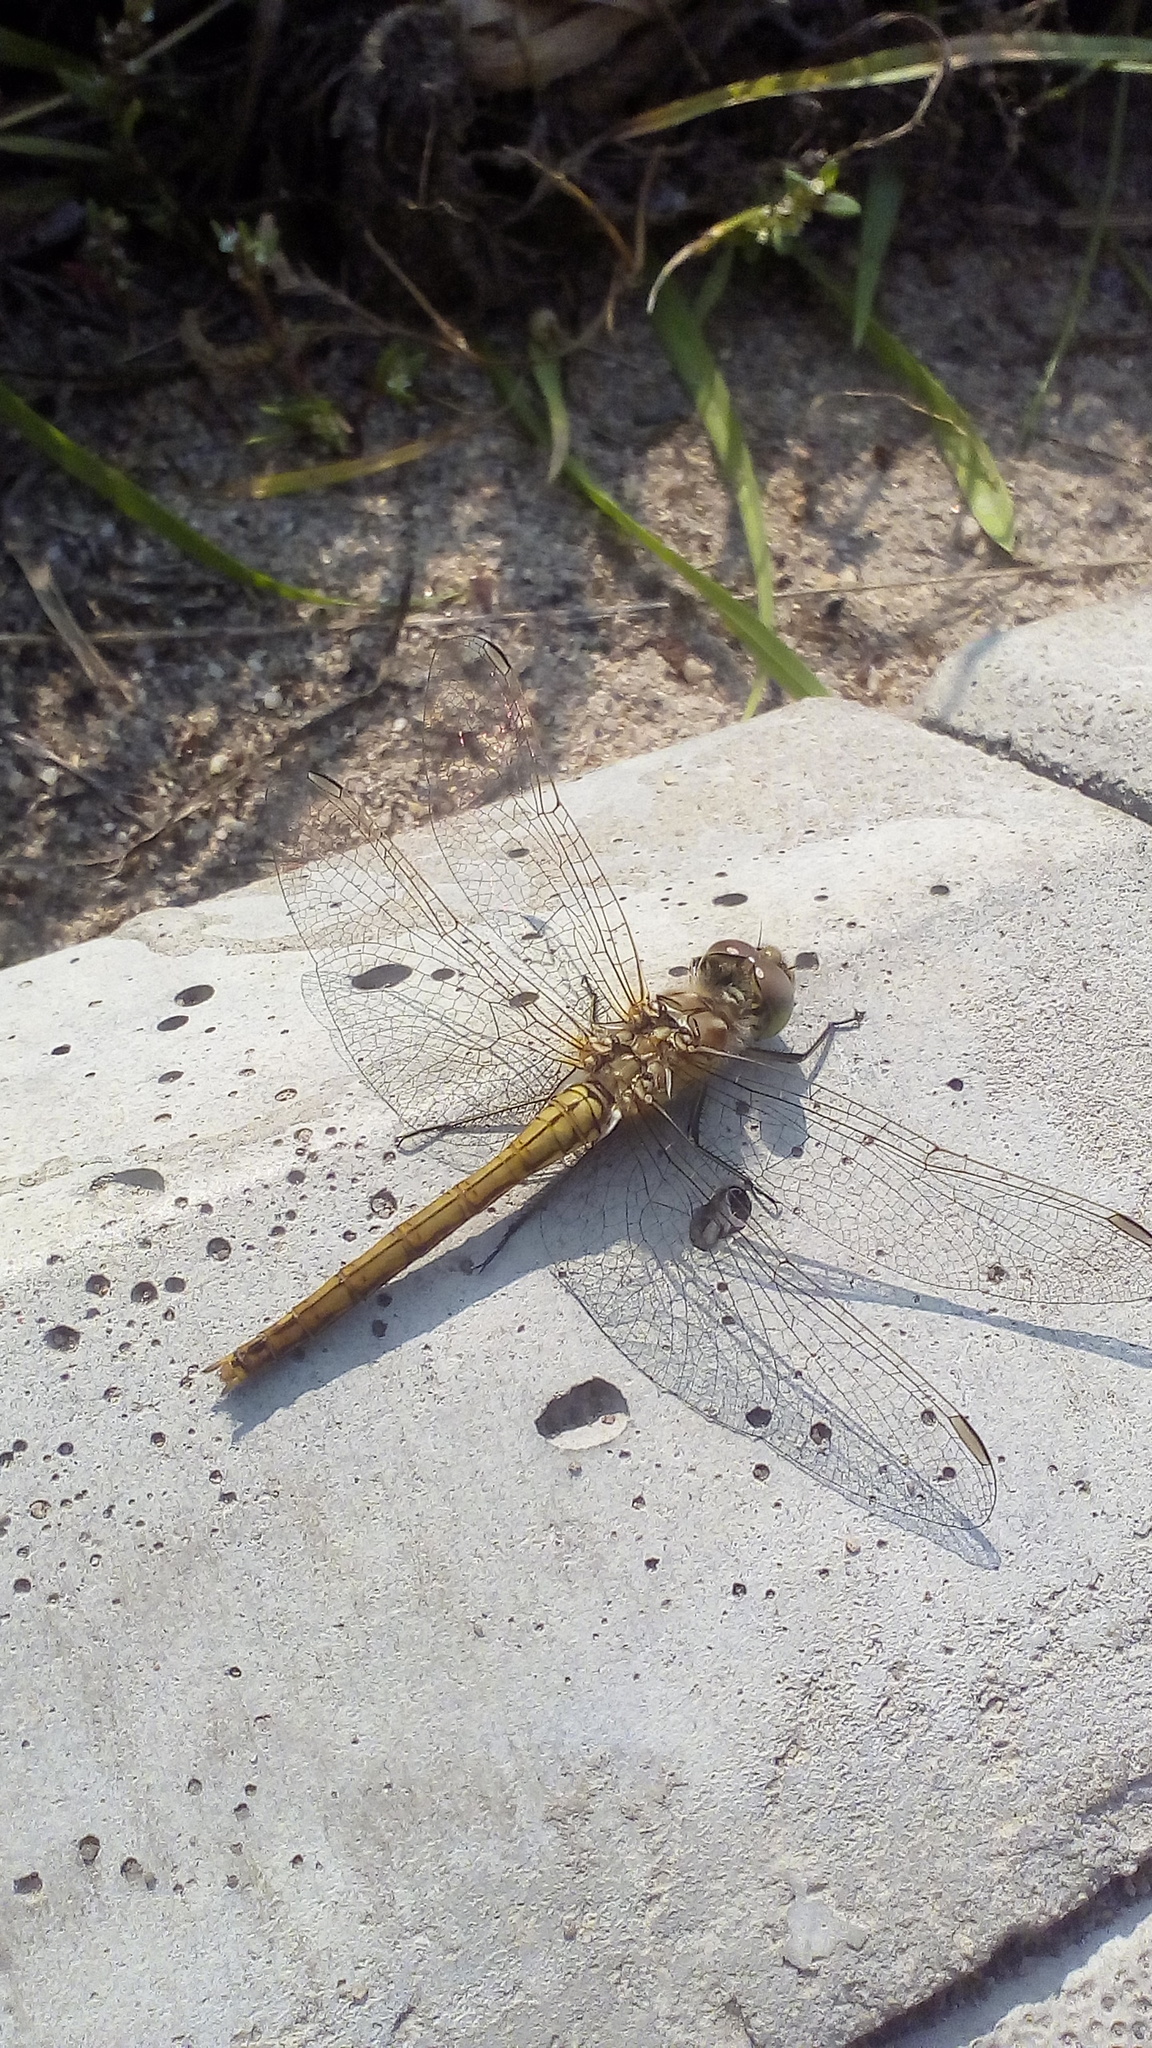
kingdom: Animalia
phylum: Arthropoda
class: Insecta
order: Odonata
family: Libellulidae
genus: Sympetrum
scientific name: Sympetrum vulgatum
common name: Vagrant darter
